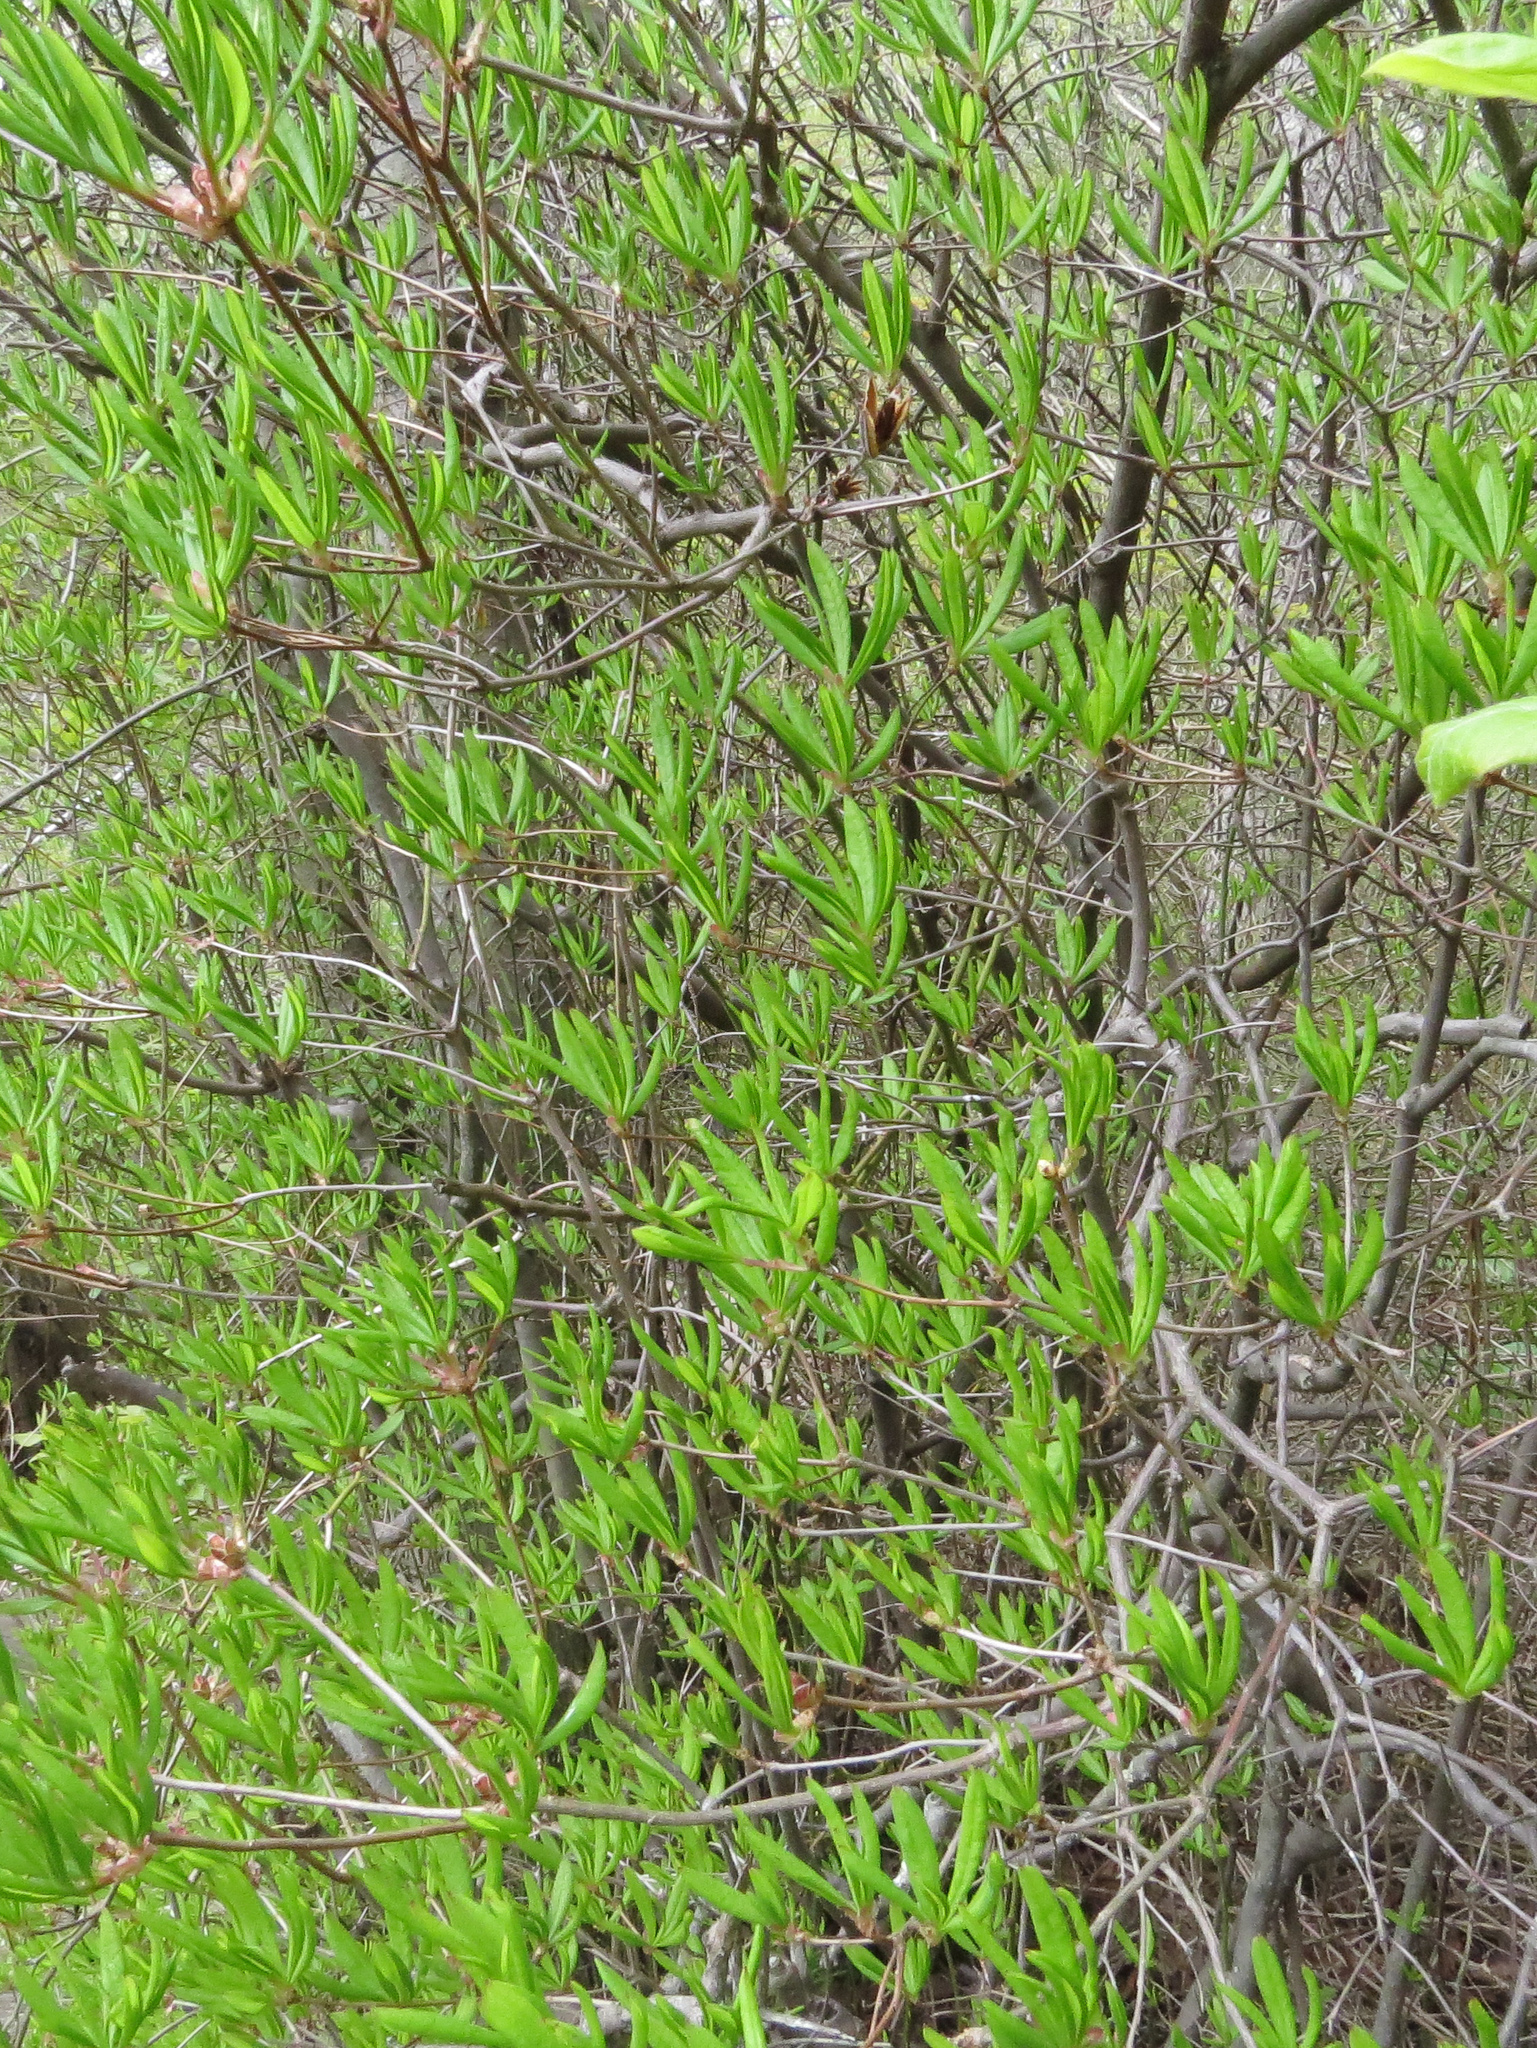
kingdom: Plantae
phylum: Tracheophyta
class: Magnoliopsida
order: Ericales
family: Ericaceae
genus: Rhododendron
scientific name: Rhododendron periclymenoides
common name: Election-pink
